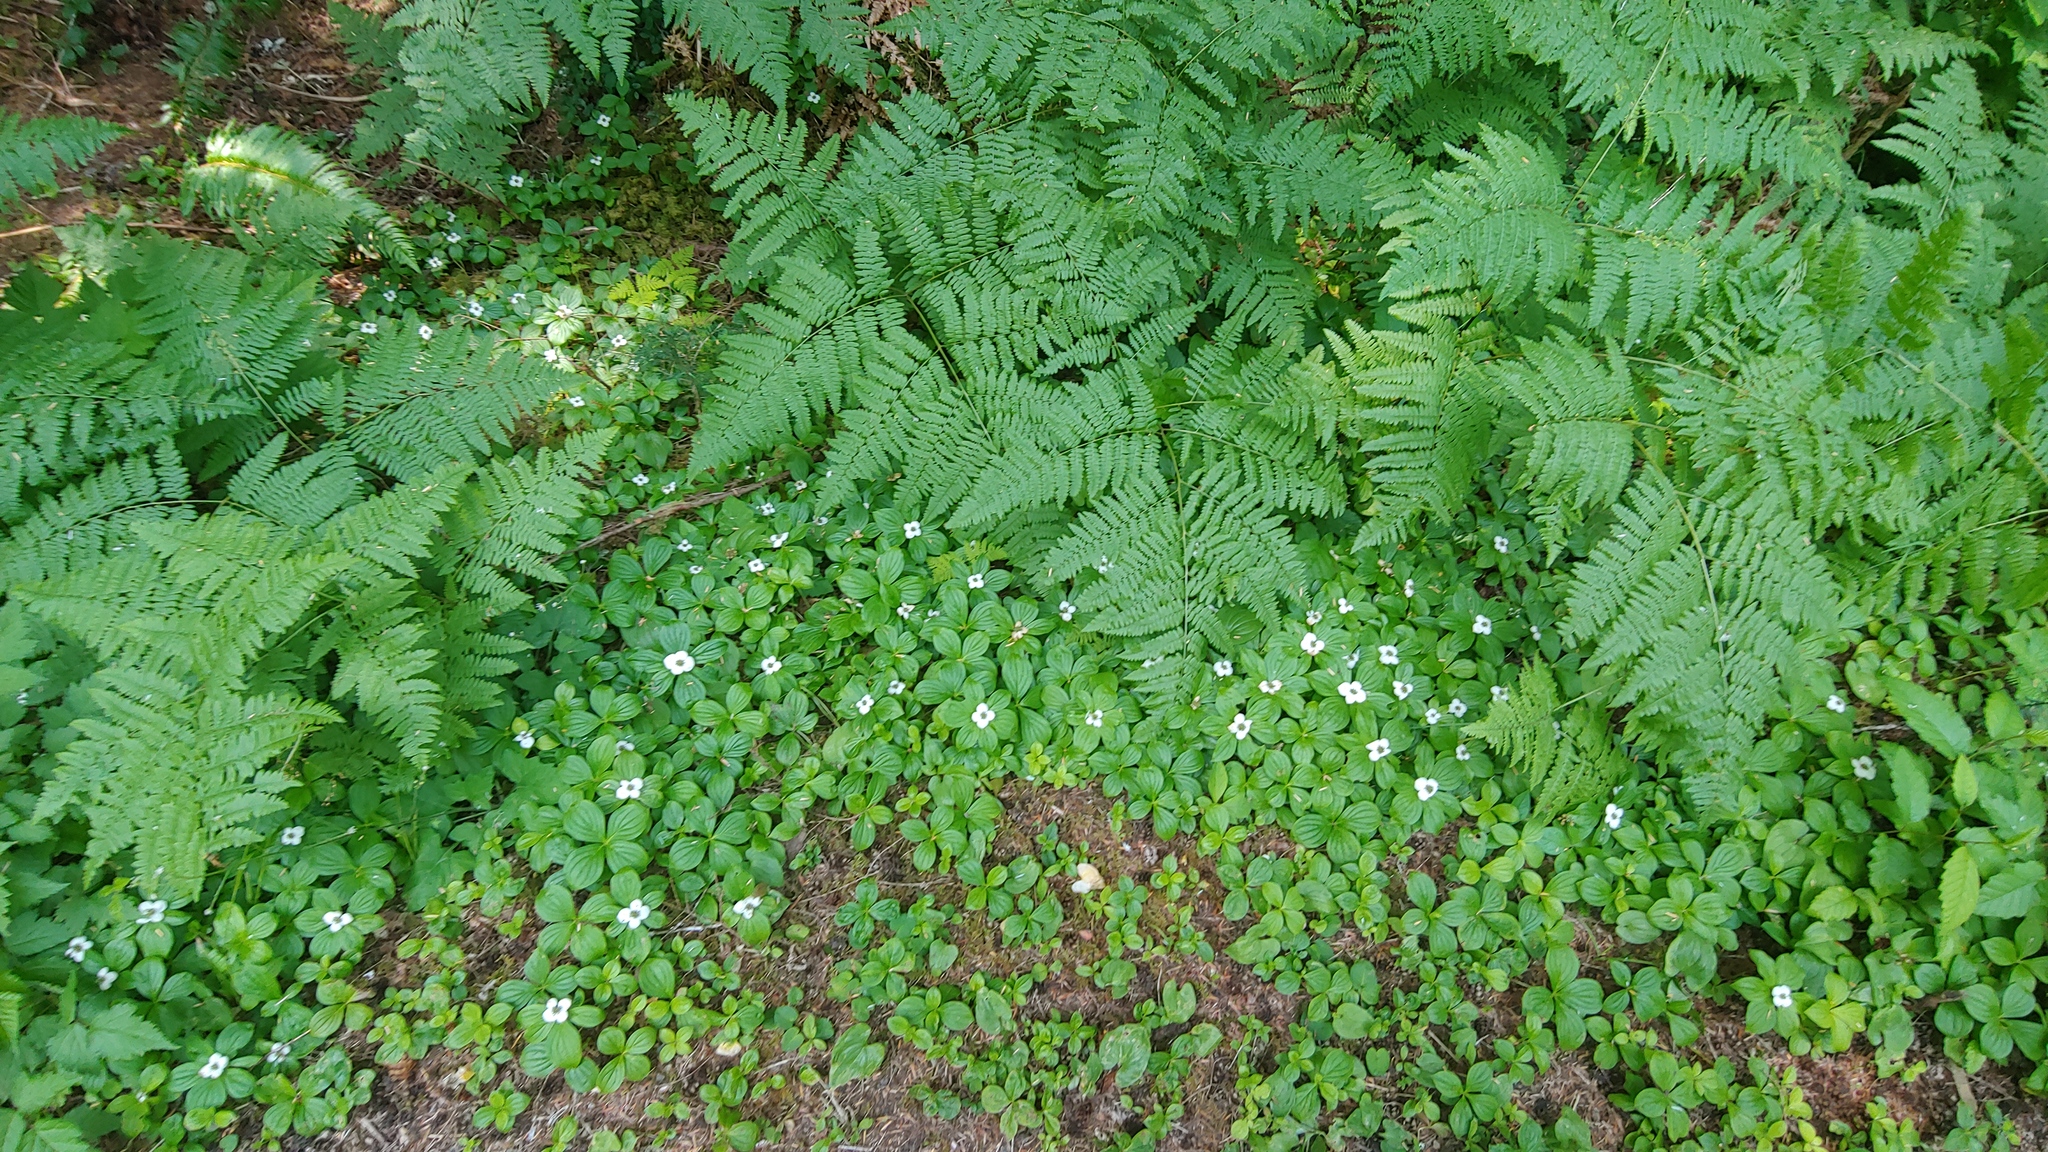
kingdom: Plantae
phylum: Tracheophyta
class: Liliopsida
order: Asparagales
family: Asparagaceae
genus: Maianthemum
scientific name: Maianthemum dilatatum
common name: False lily-of-the-valley
